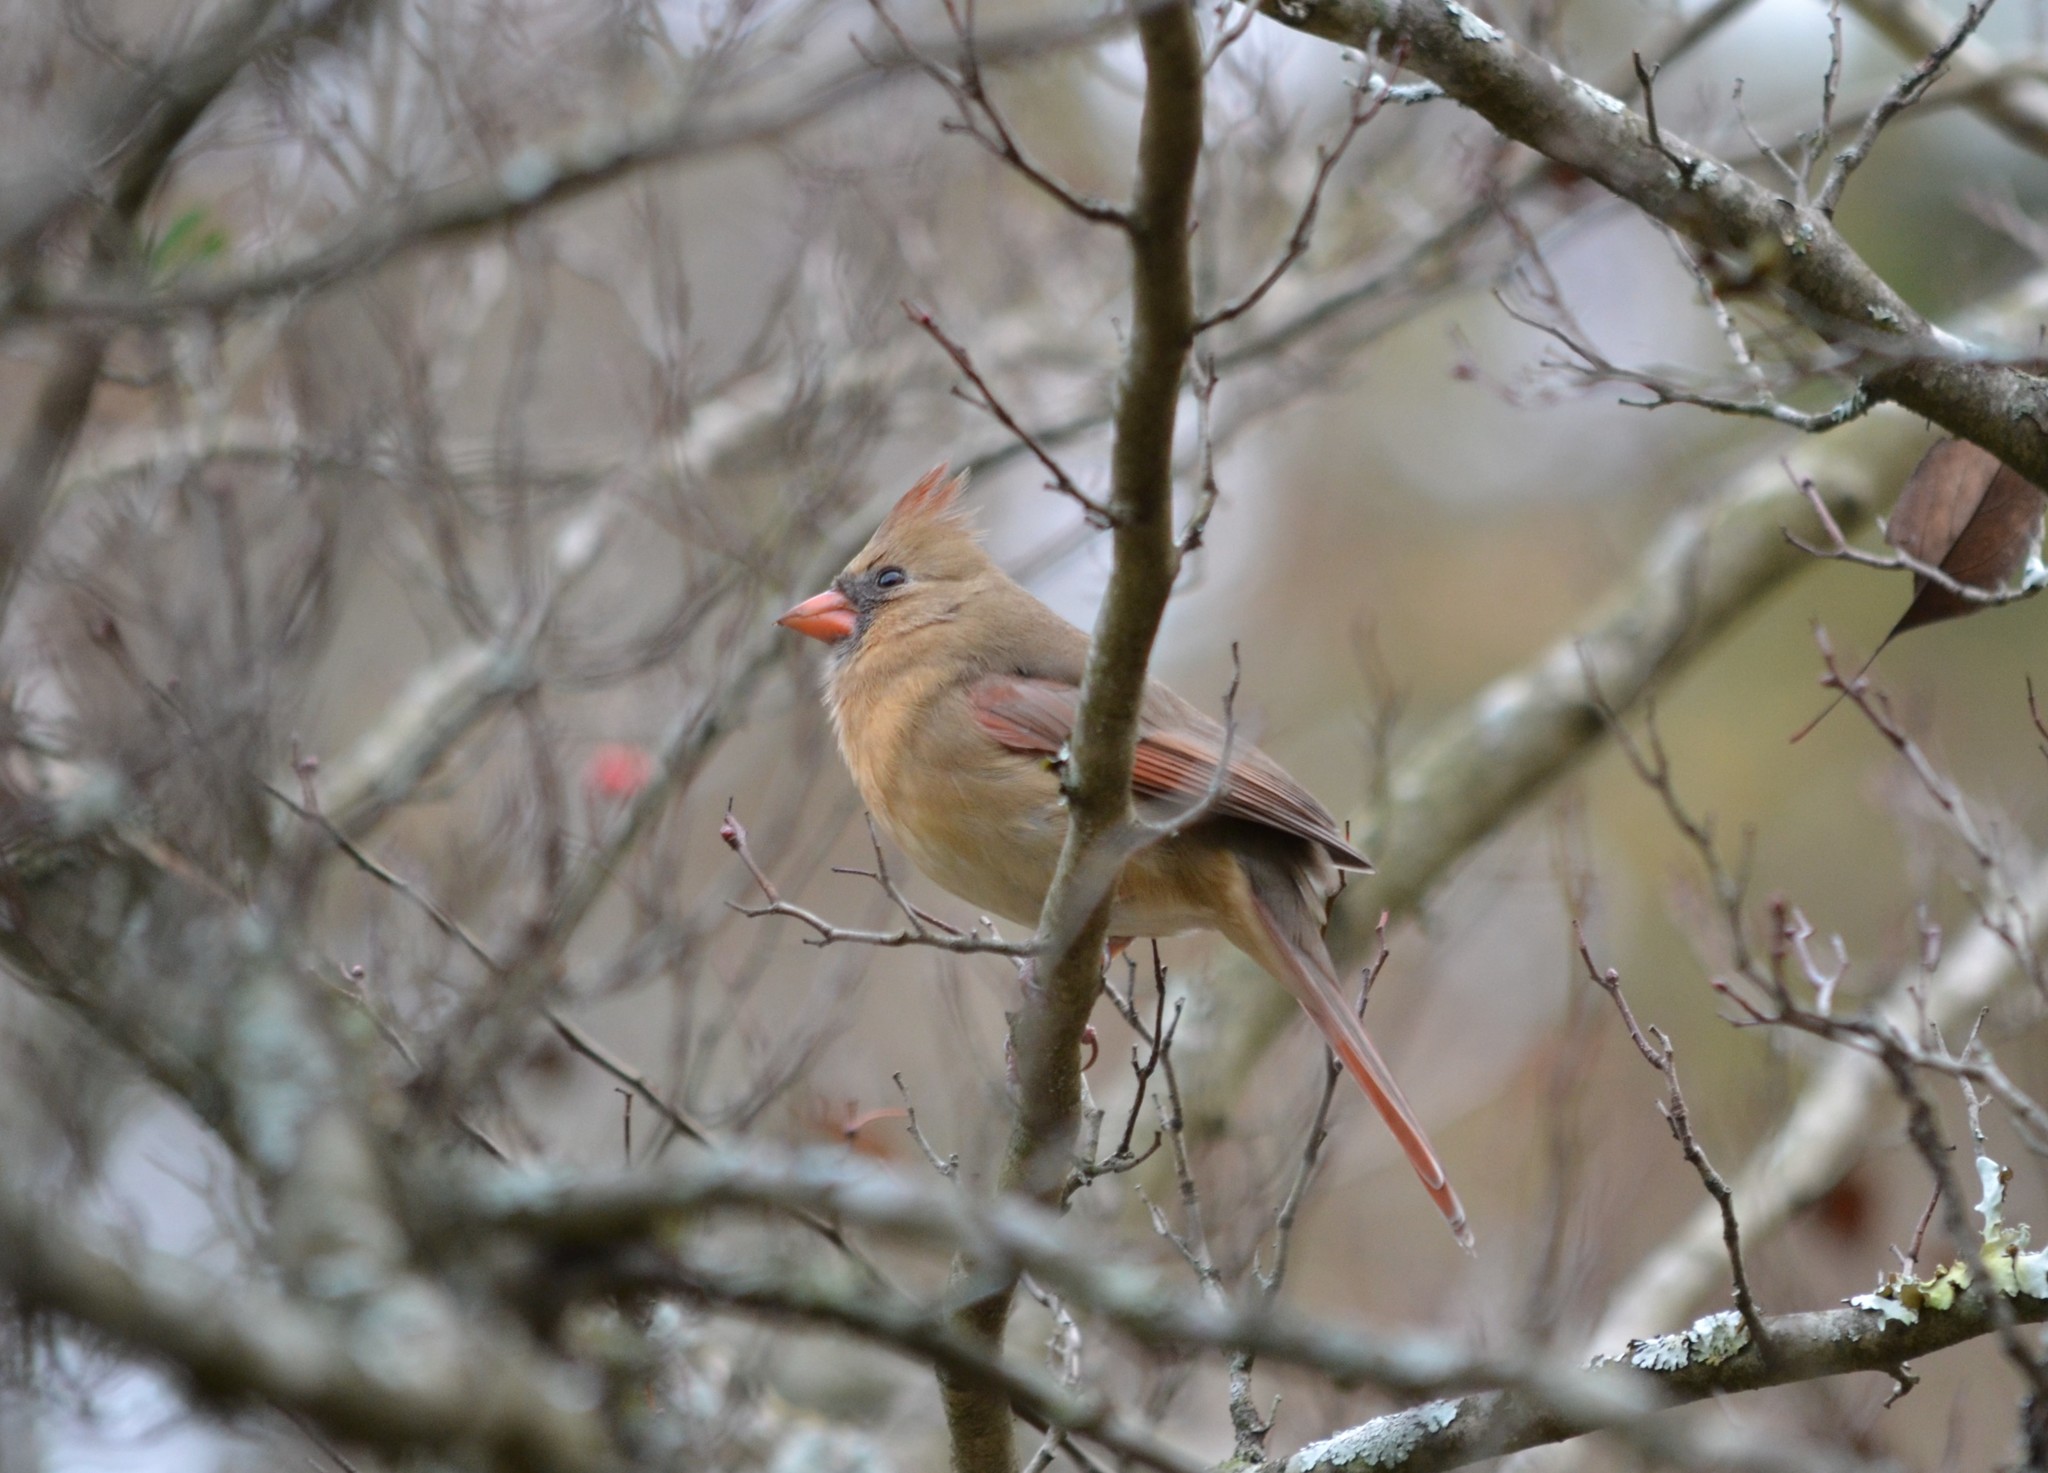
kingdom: Animalia
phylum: Chordata
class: Aves
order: Passeriformes
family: Cardinalidae
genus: Cardinalis
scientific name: Cardinalis cardinalis
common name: Northern cardinal
